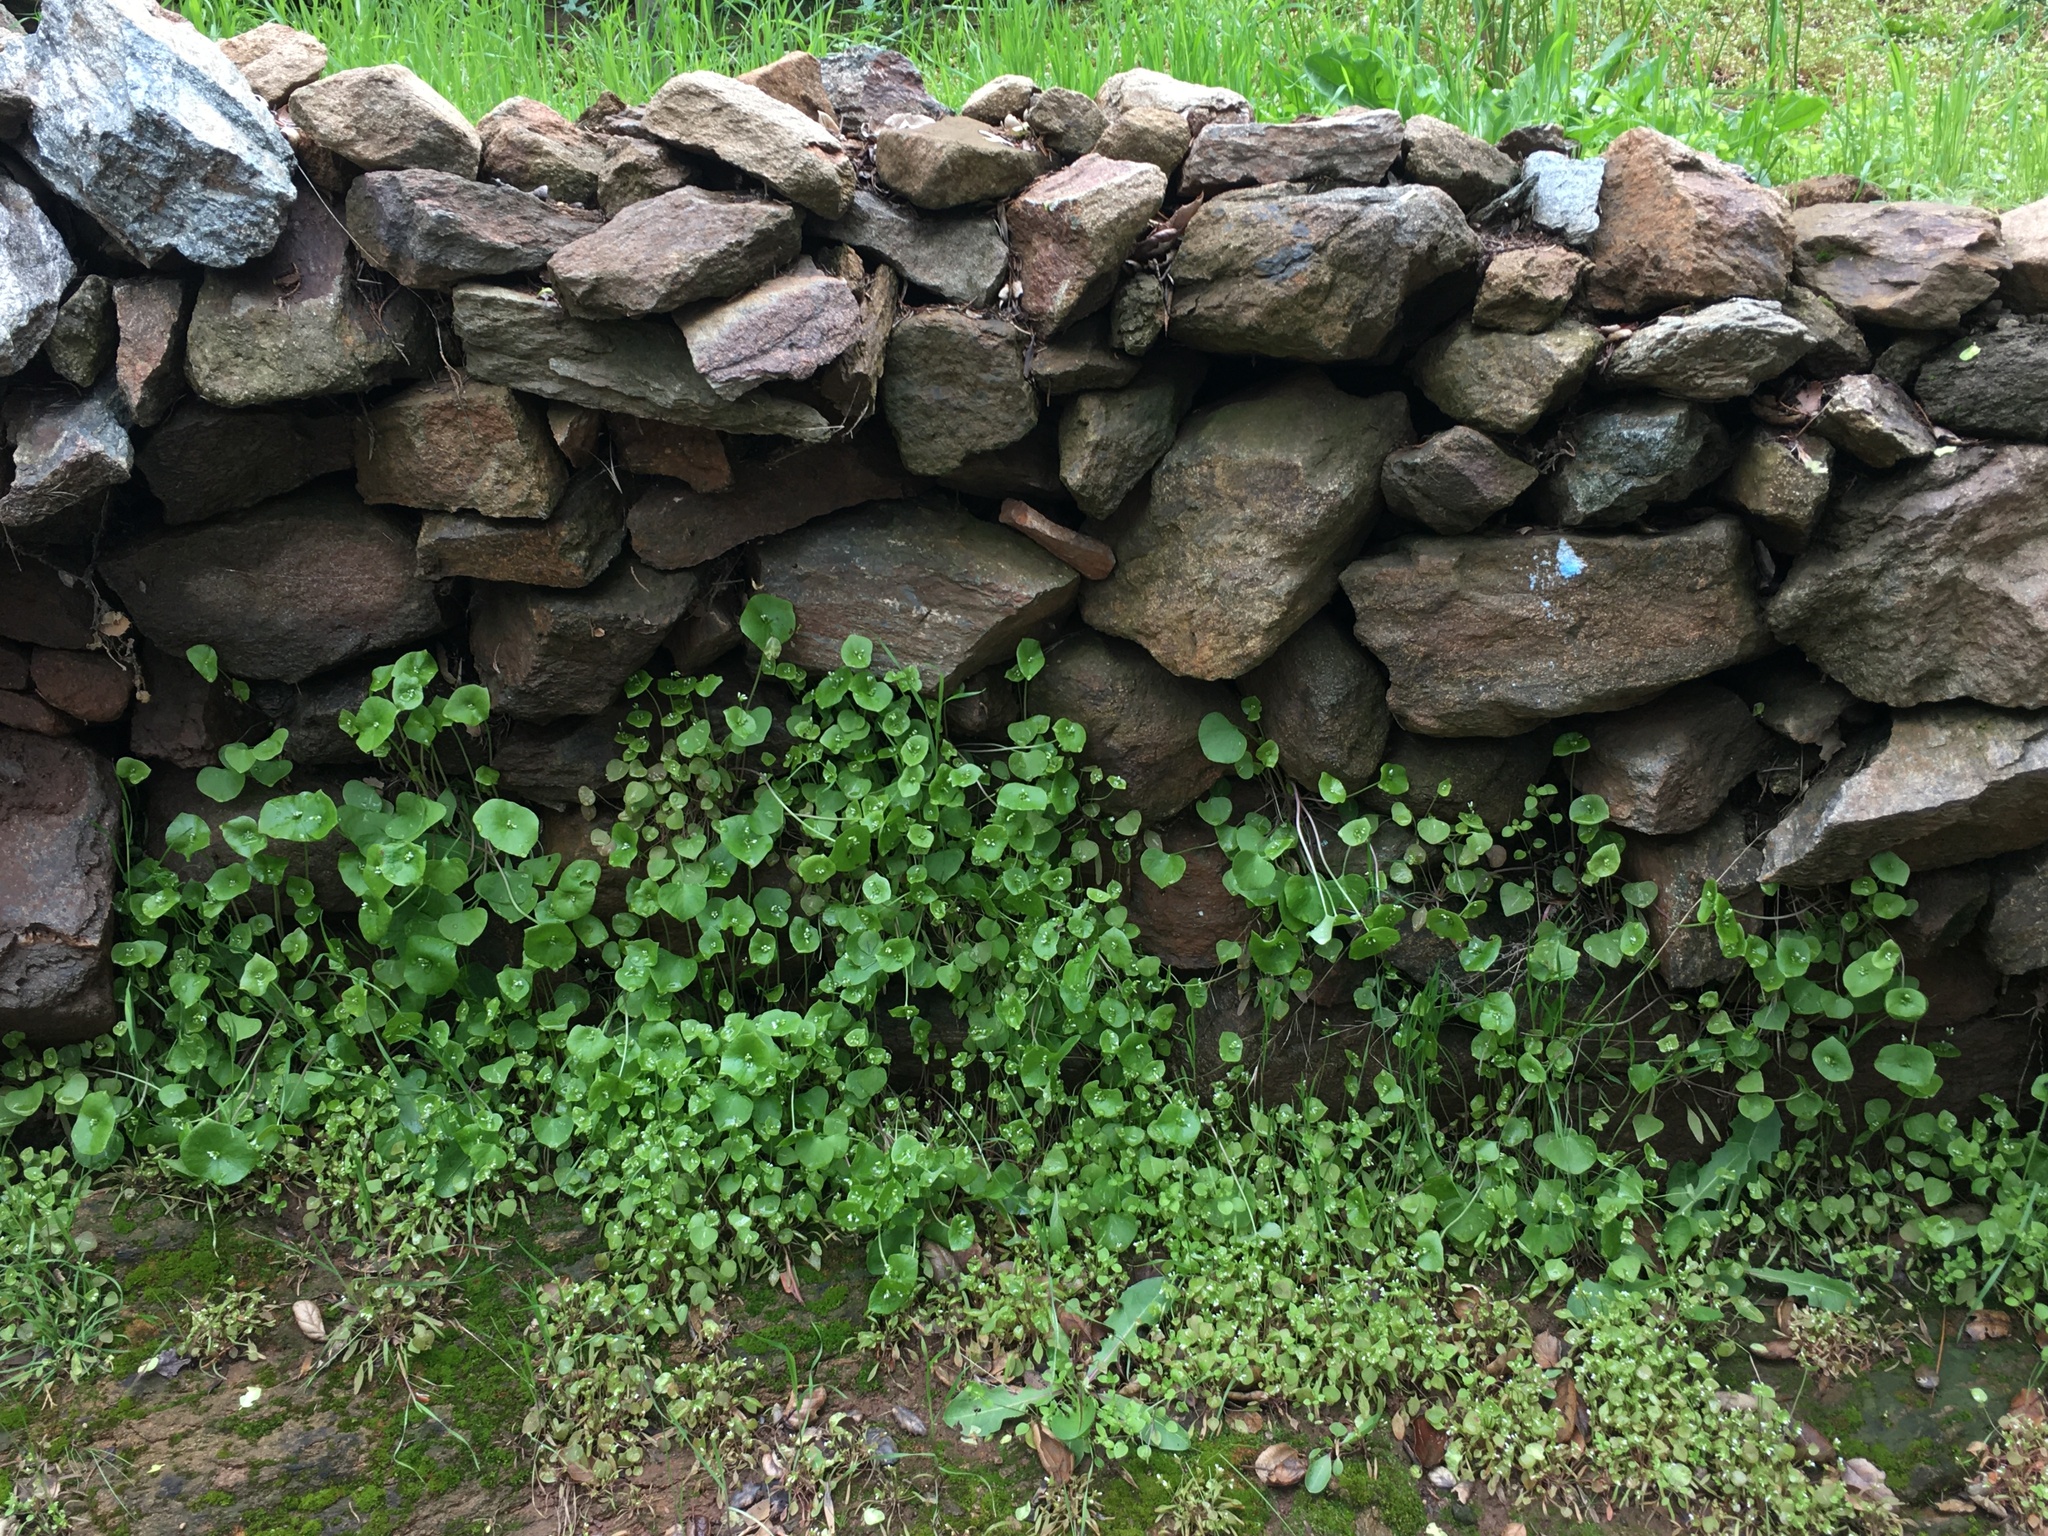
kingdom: Plantae
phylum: Tracheophyta
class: Magnoliopsida
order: Caryophyllales
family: Montiaceae
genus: Claytonia
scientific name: Claytonia perfoliata
